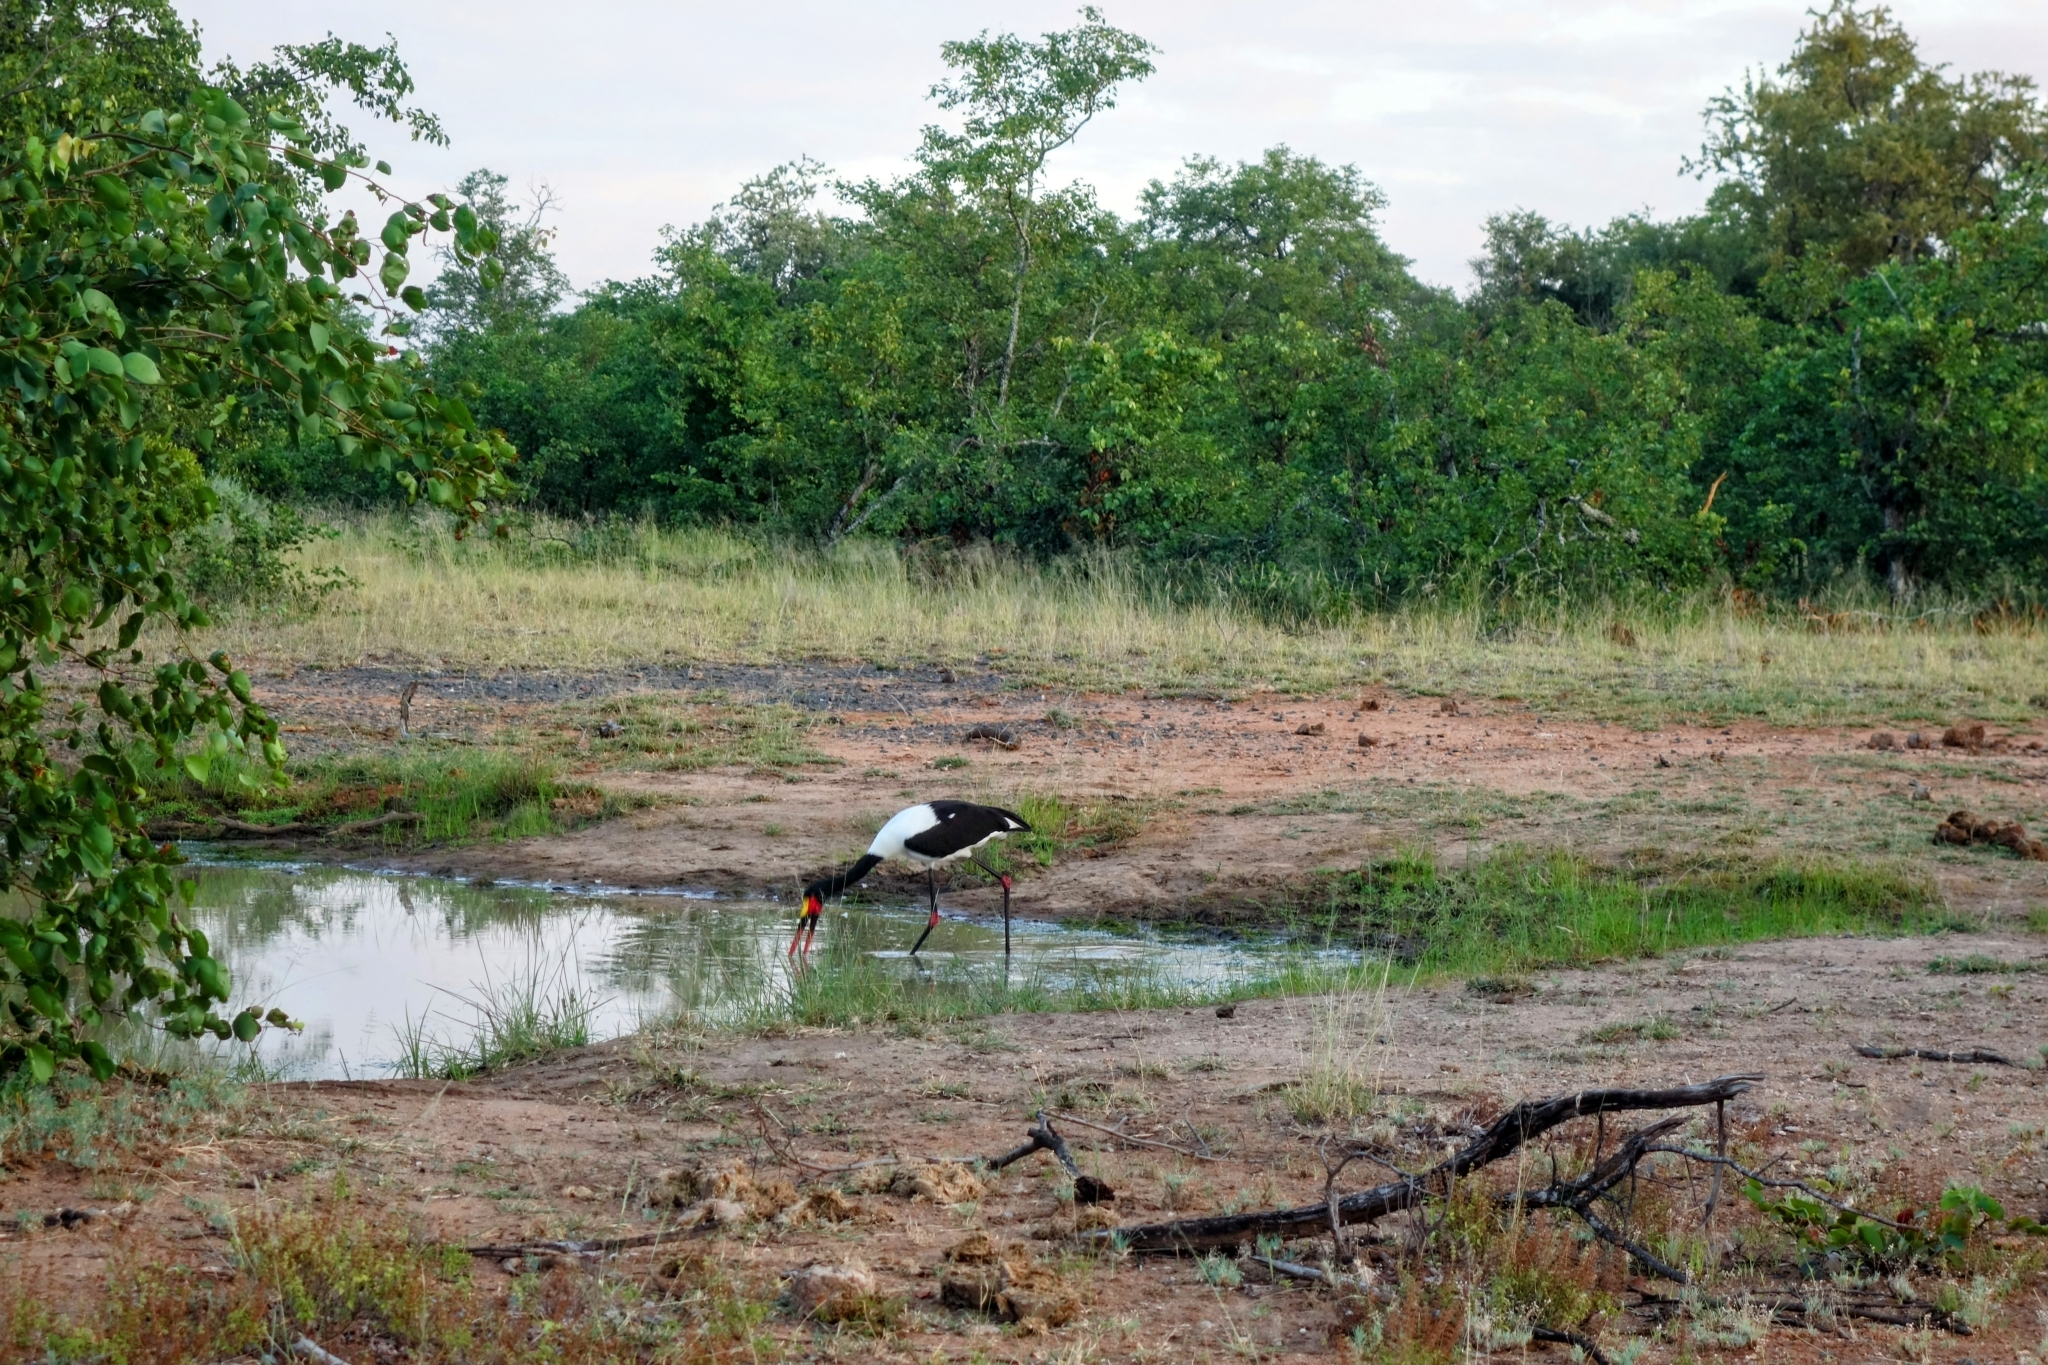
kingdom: Animalia
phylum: Chordata
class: Aves
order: Ciconiiformes
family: Ciconiidae
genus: Ephippiorhynchus
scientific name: Ephippiorhynchus senegalensis
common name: Saddle-billed stork
